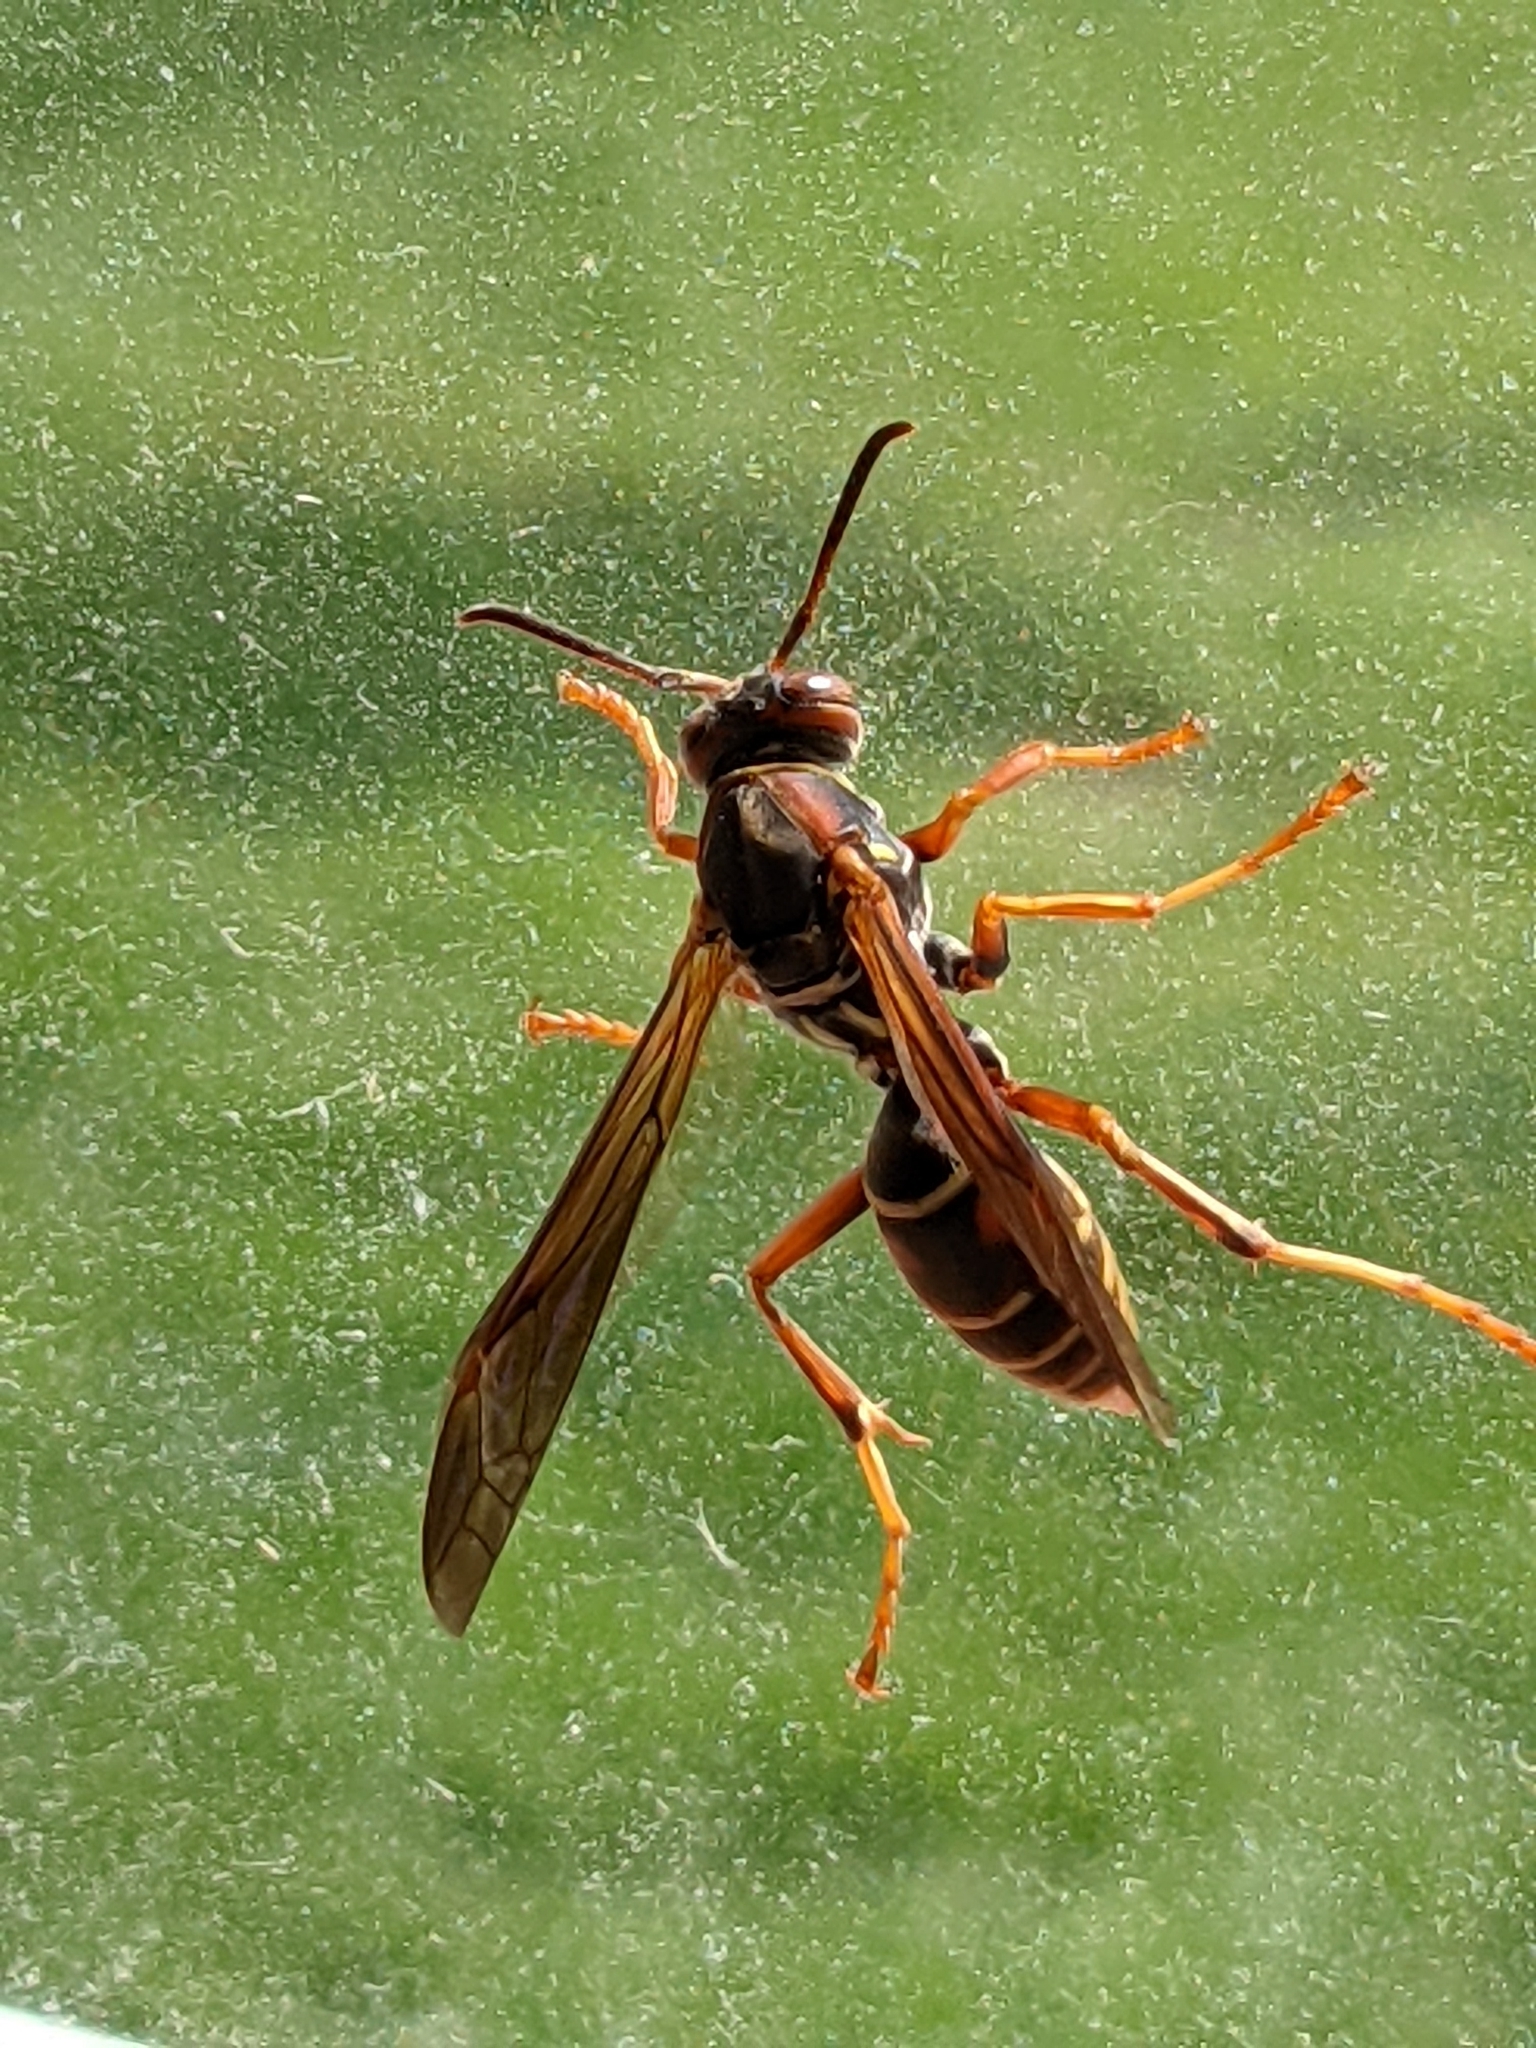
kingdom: Animalia
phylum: Arthropoda
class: Insecta
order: Hymenoptera
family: Eumenidae
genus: Polistes
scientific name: Polistes fuscatus
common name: Dark paper wasp
